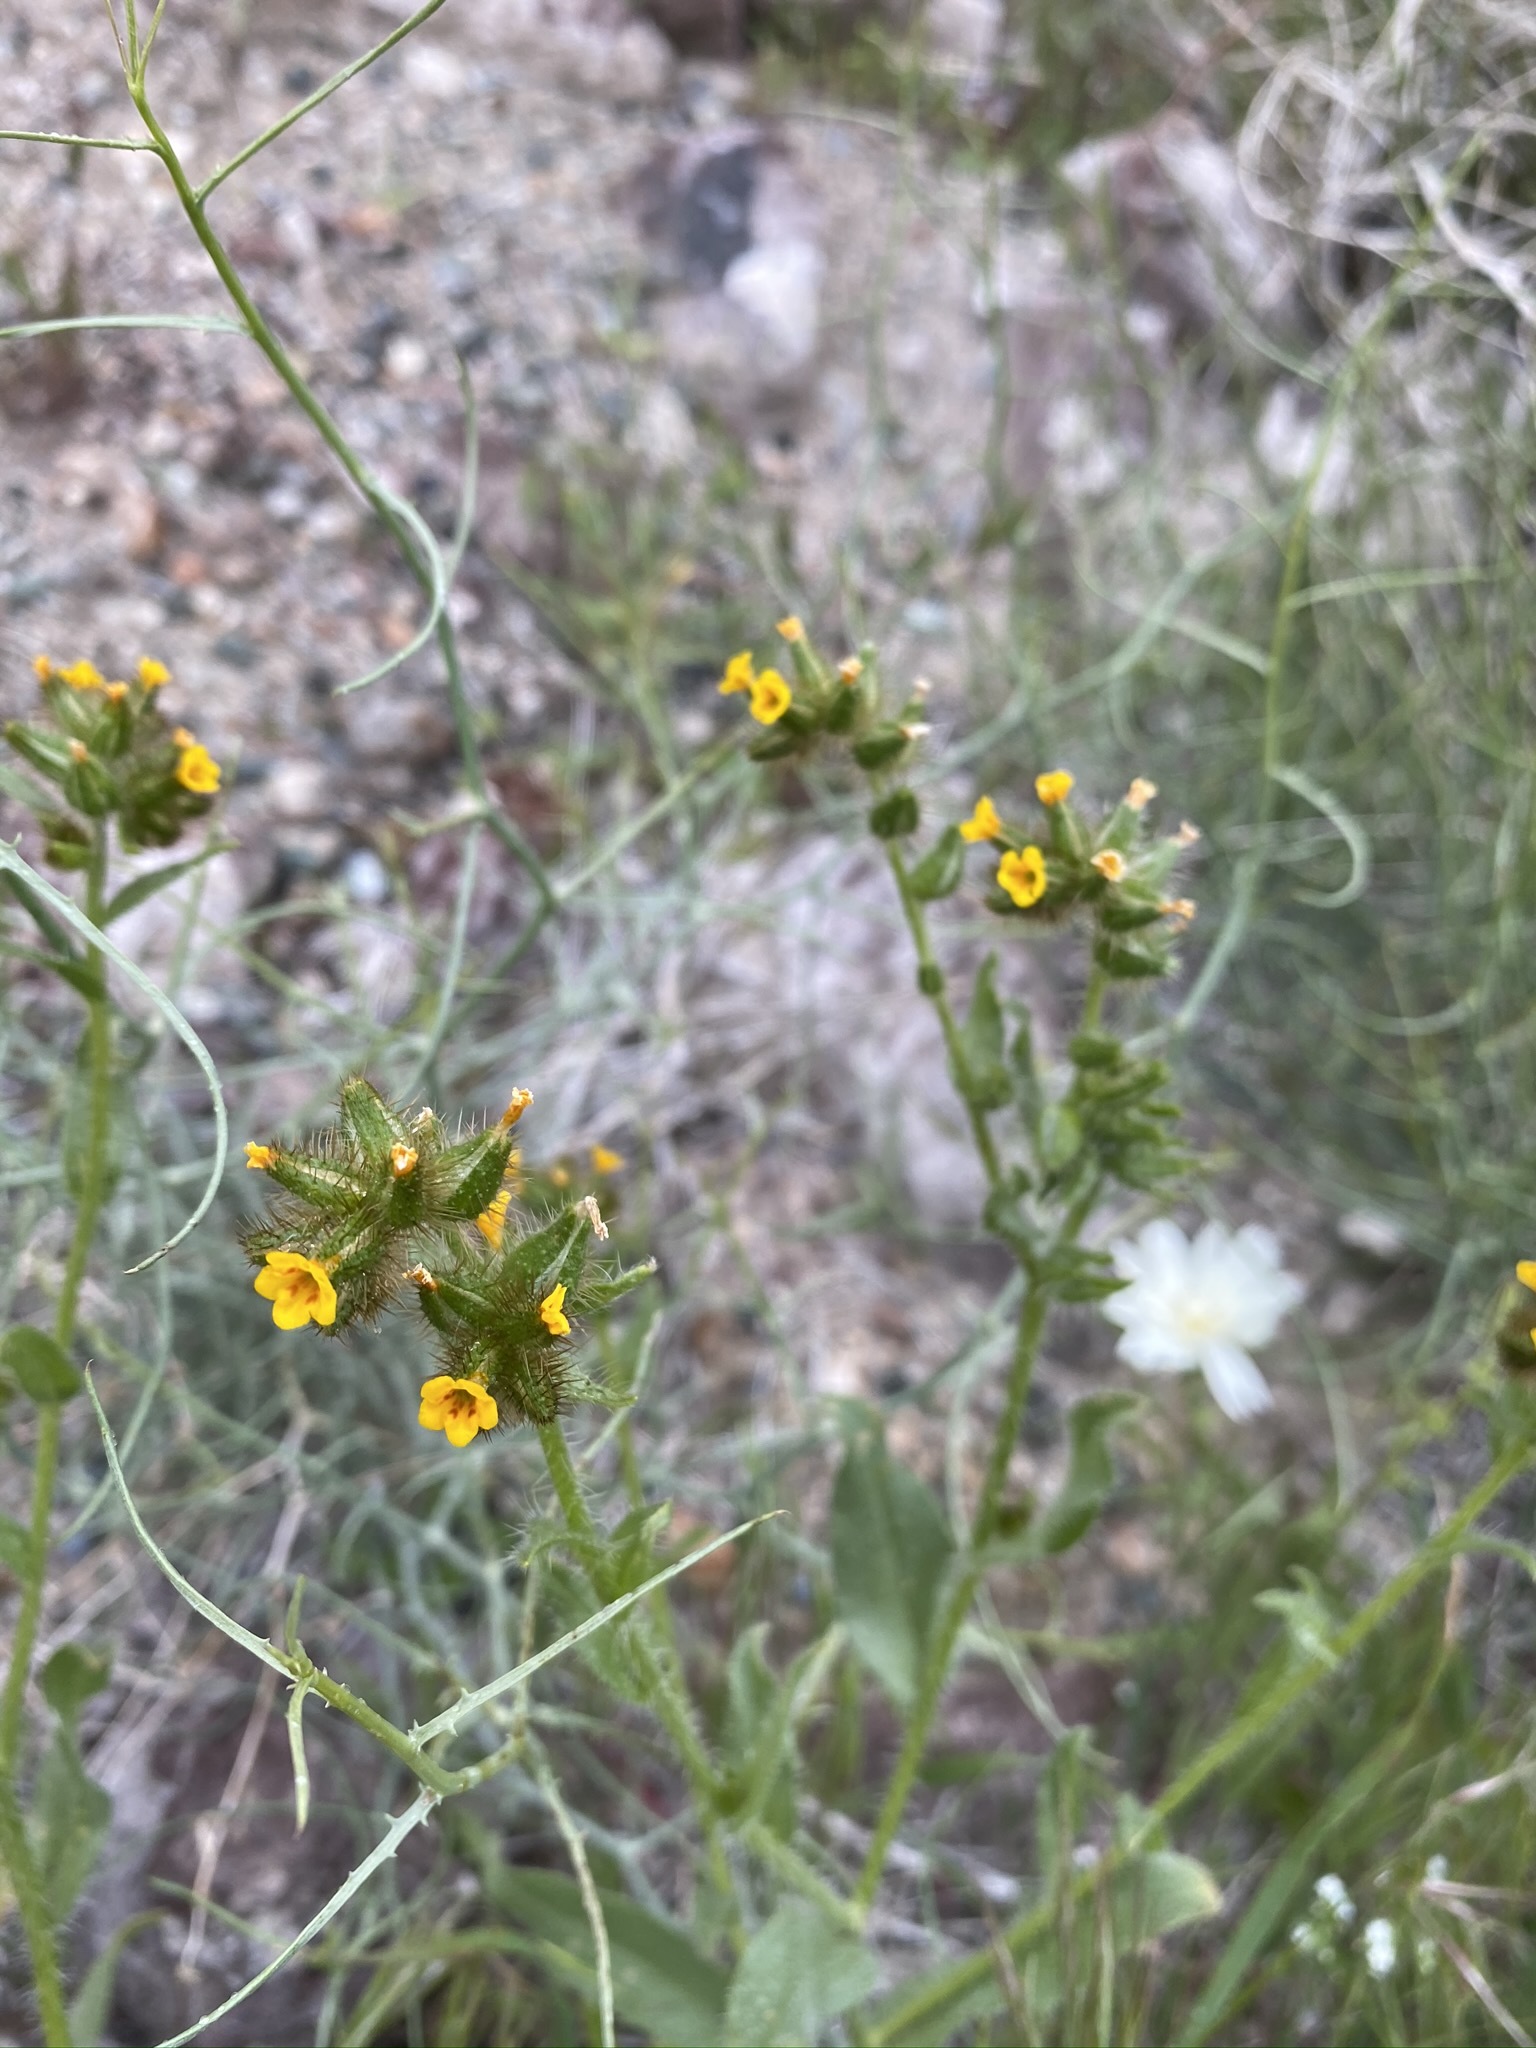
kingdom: Plantae
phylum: Tracheophyta
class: Magnoliopsida
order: Boraginales
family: Boraginaceae
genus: Amsinckia
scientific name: Amsinckia tessellata
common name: Tessellate fiddleneck
